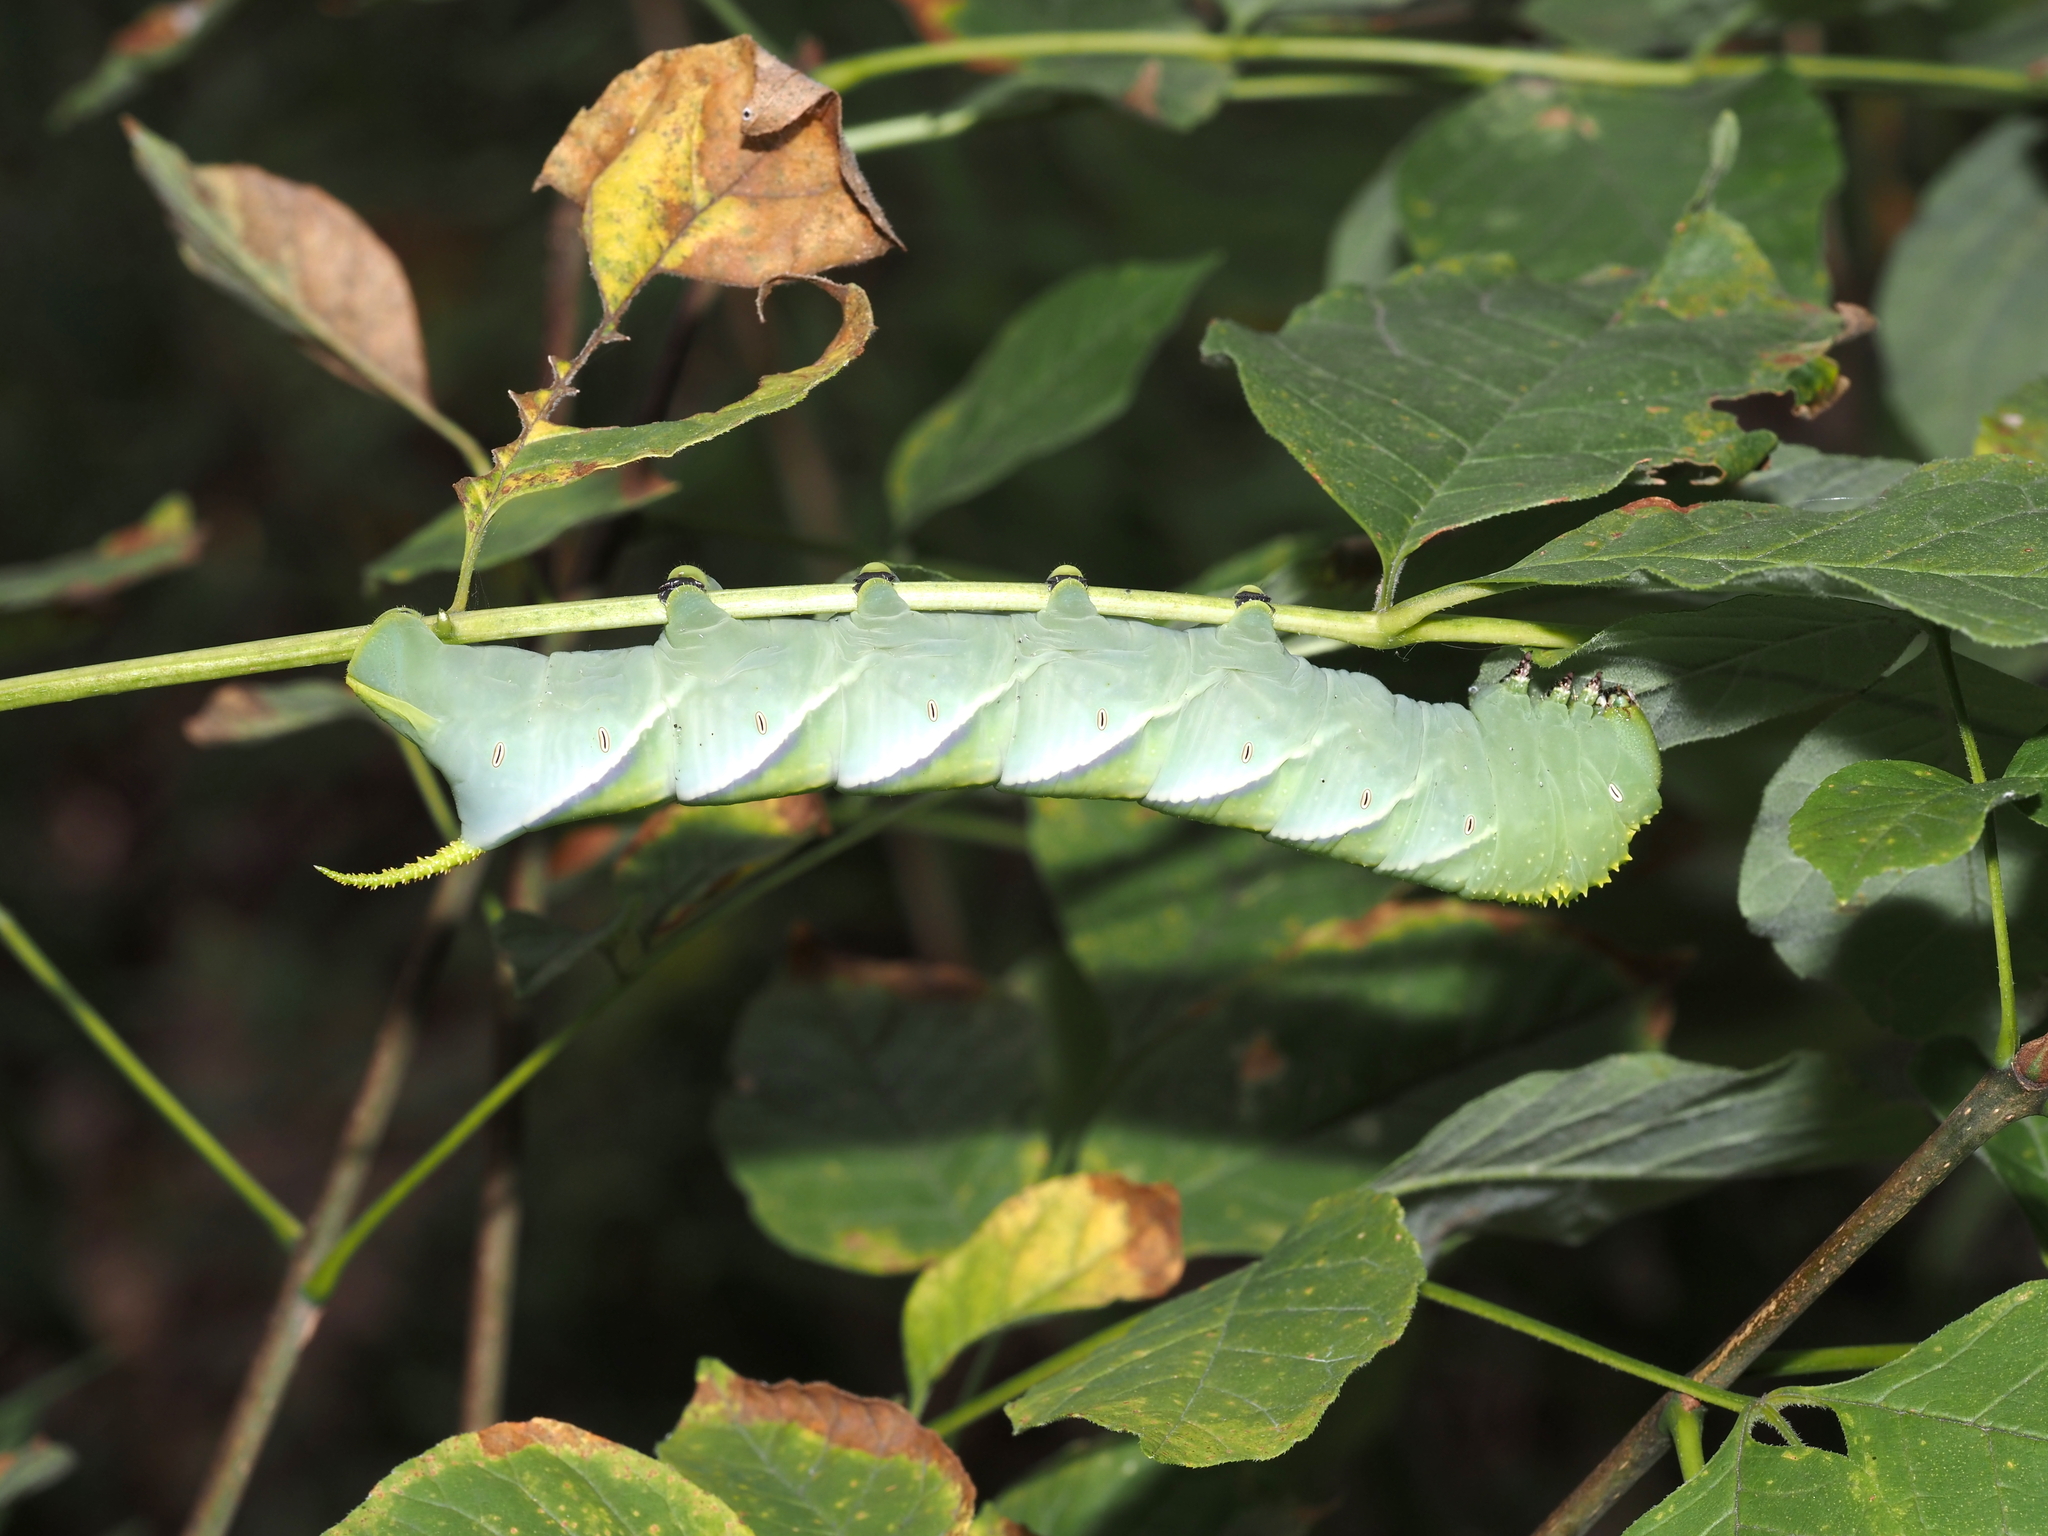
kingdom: Animalia
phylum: Arthropoda
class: Insecta
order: Lepidoptera
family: Sphingidae
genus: Manduca
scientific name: Manduca rustica
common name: Rustic sphinx
